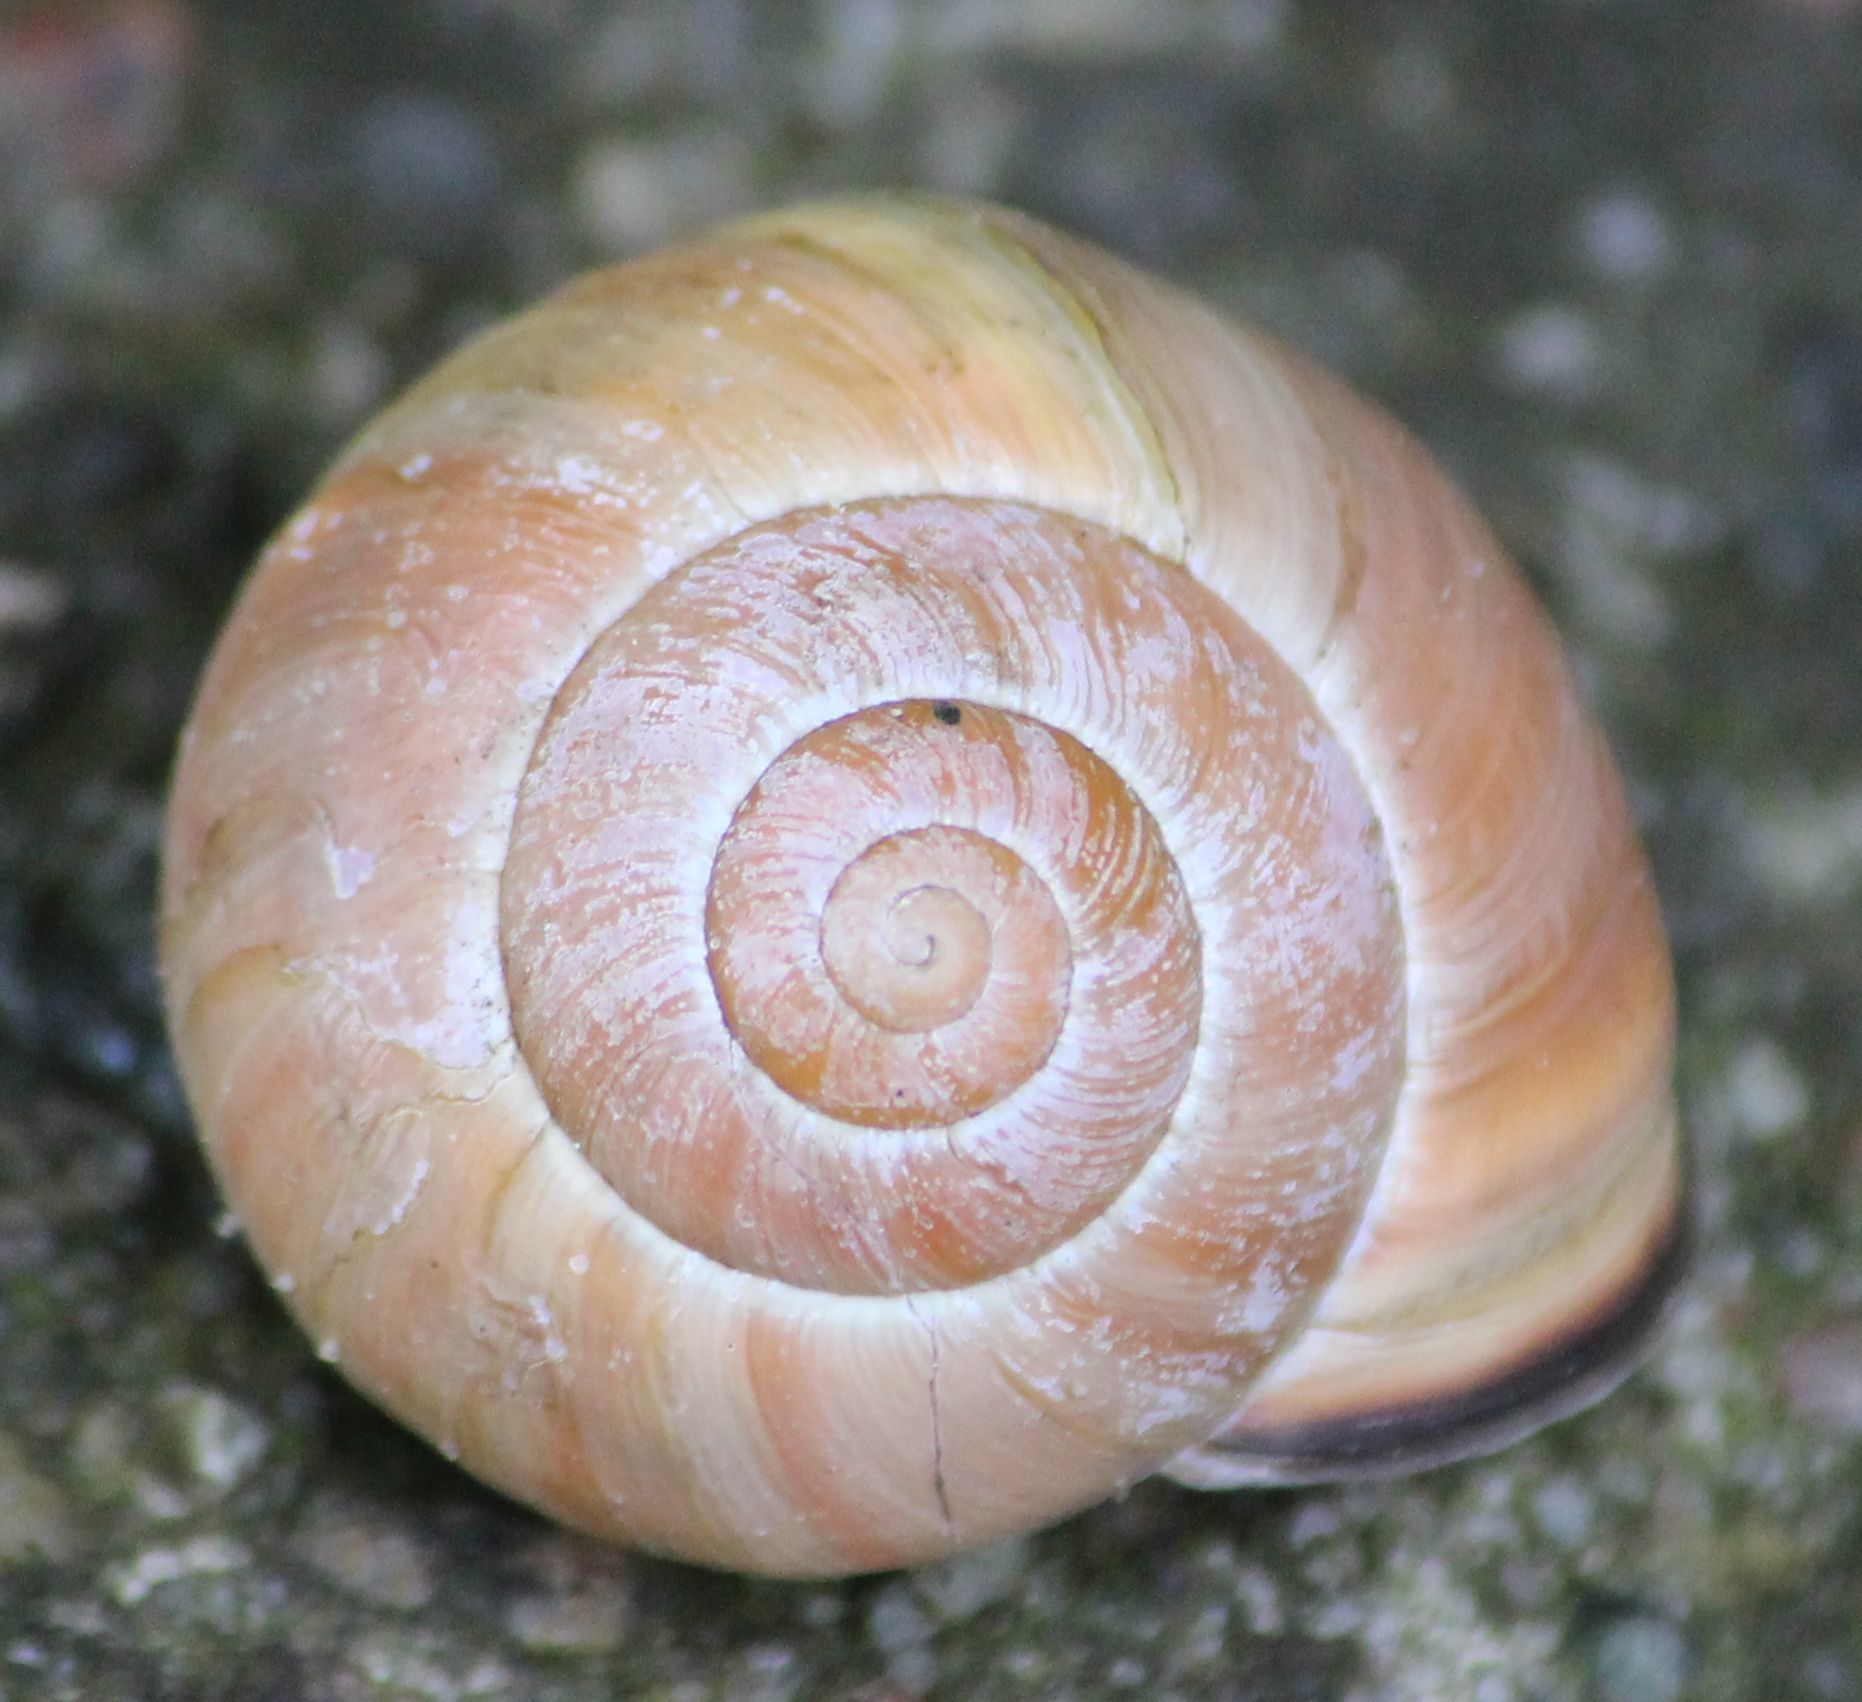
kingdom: Animalia
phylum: Mollusca
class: Gastropoda
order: Stylommatophora
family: Helicidae
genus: Cepaea
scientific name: Cepaea nemoralis
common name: Grovesnail
